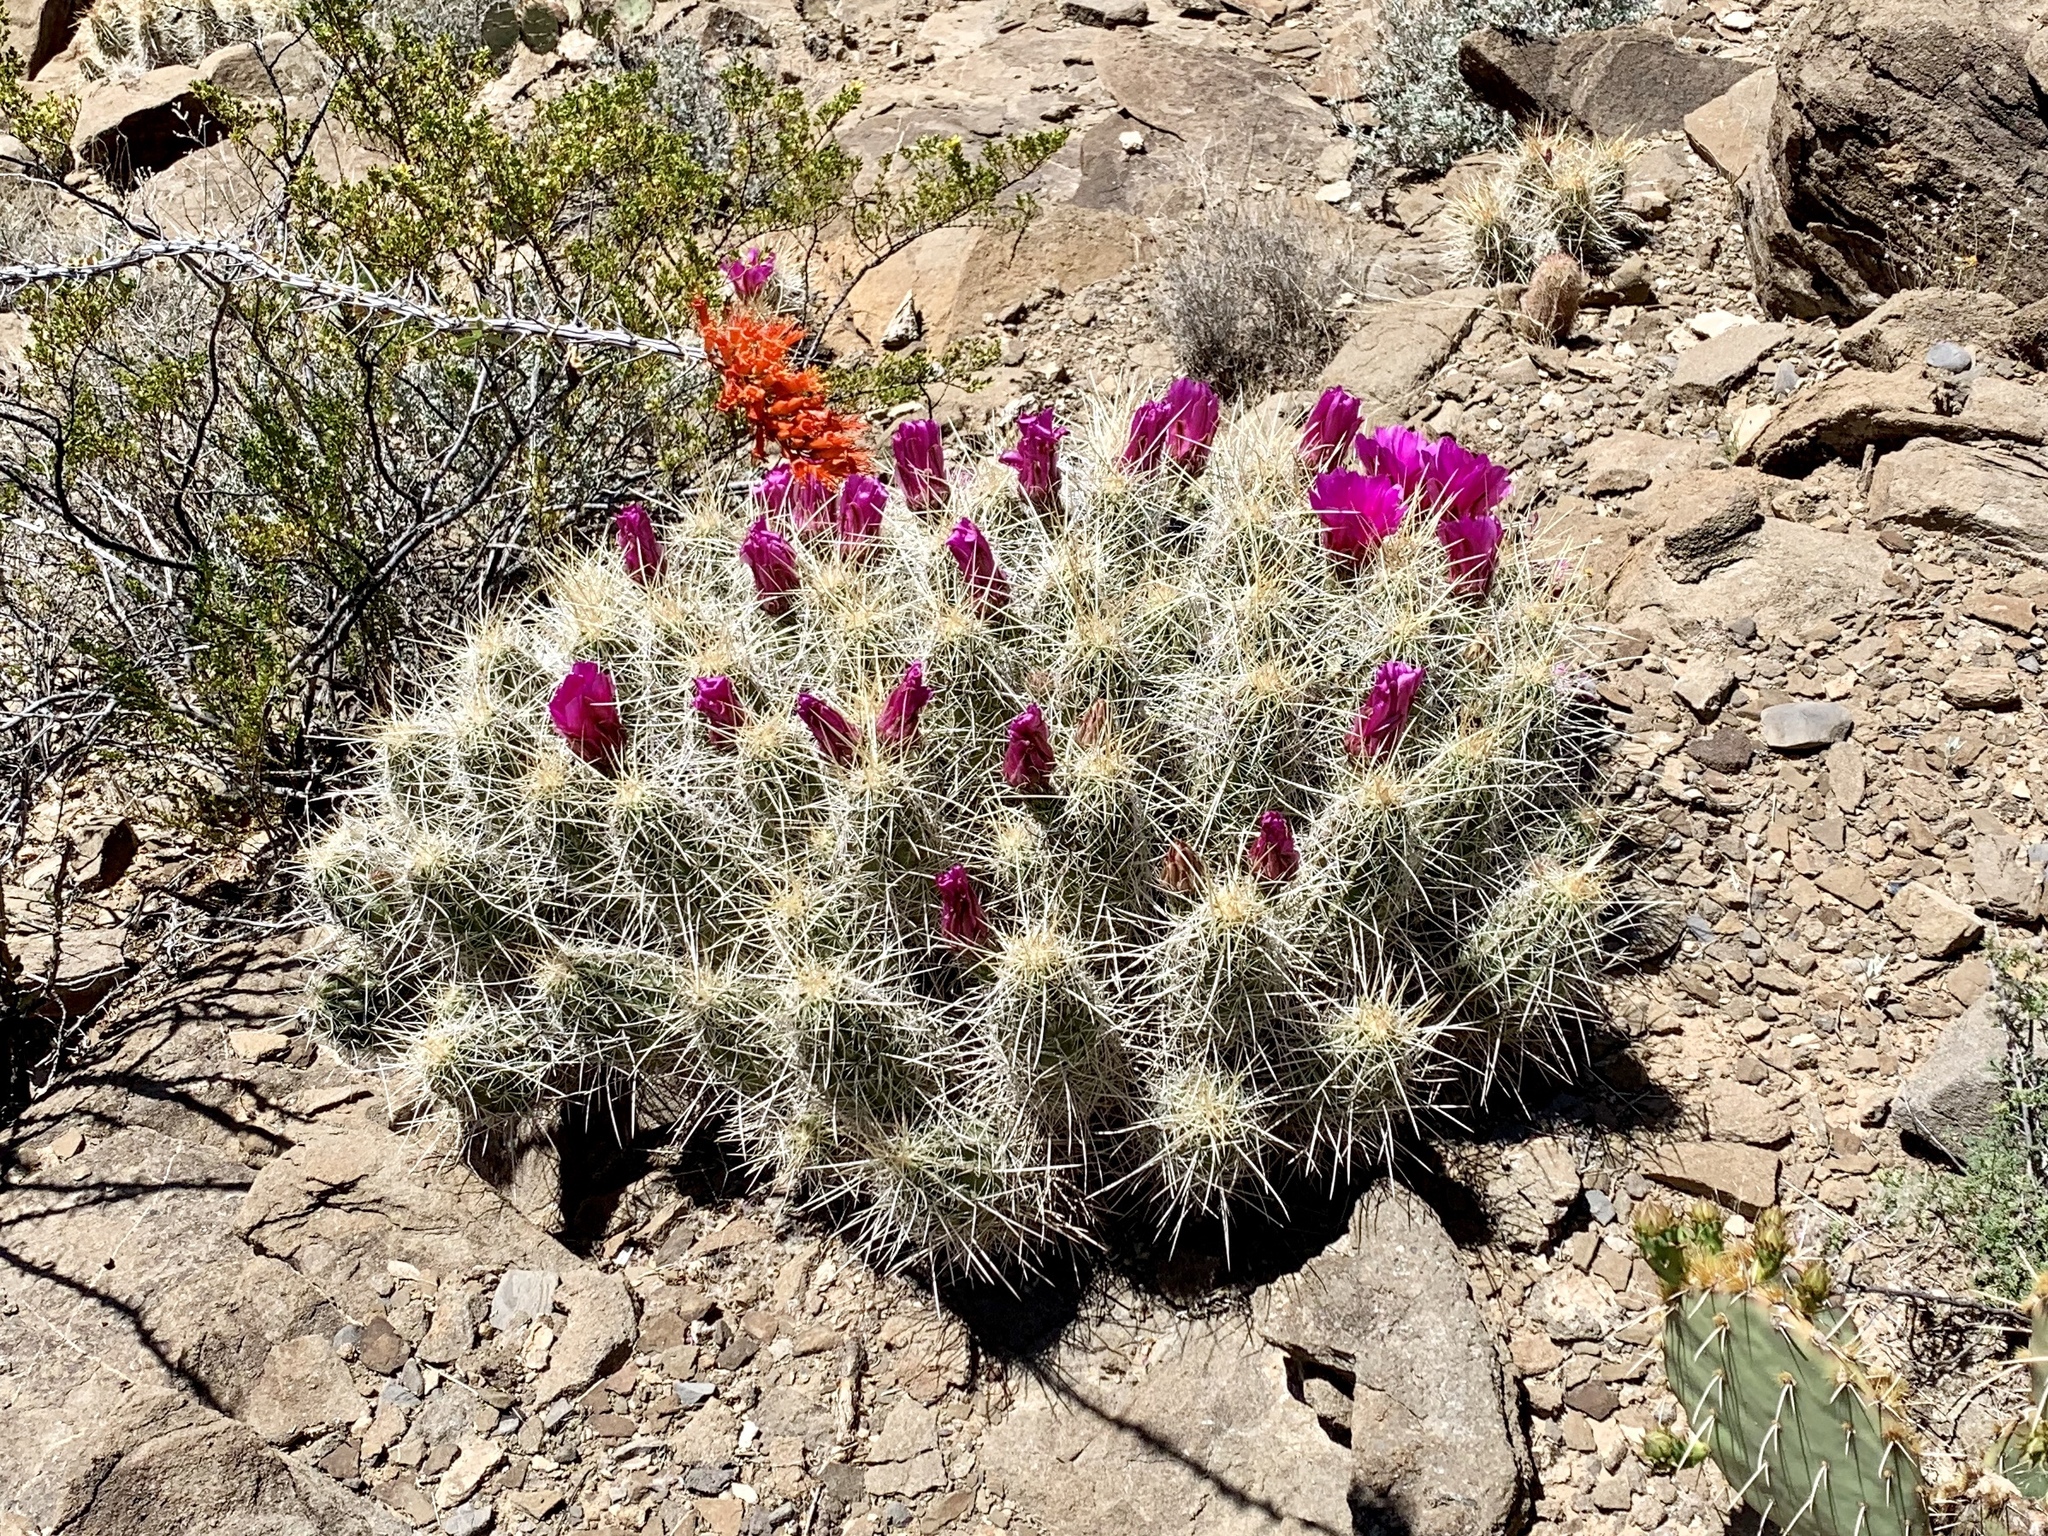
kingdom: Plantae
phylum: Tracheophyta
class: Magnoliopsida
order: Caryophyllales
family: Cactaceae
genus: Echinocereus
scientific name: Echinocereus stramineus
